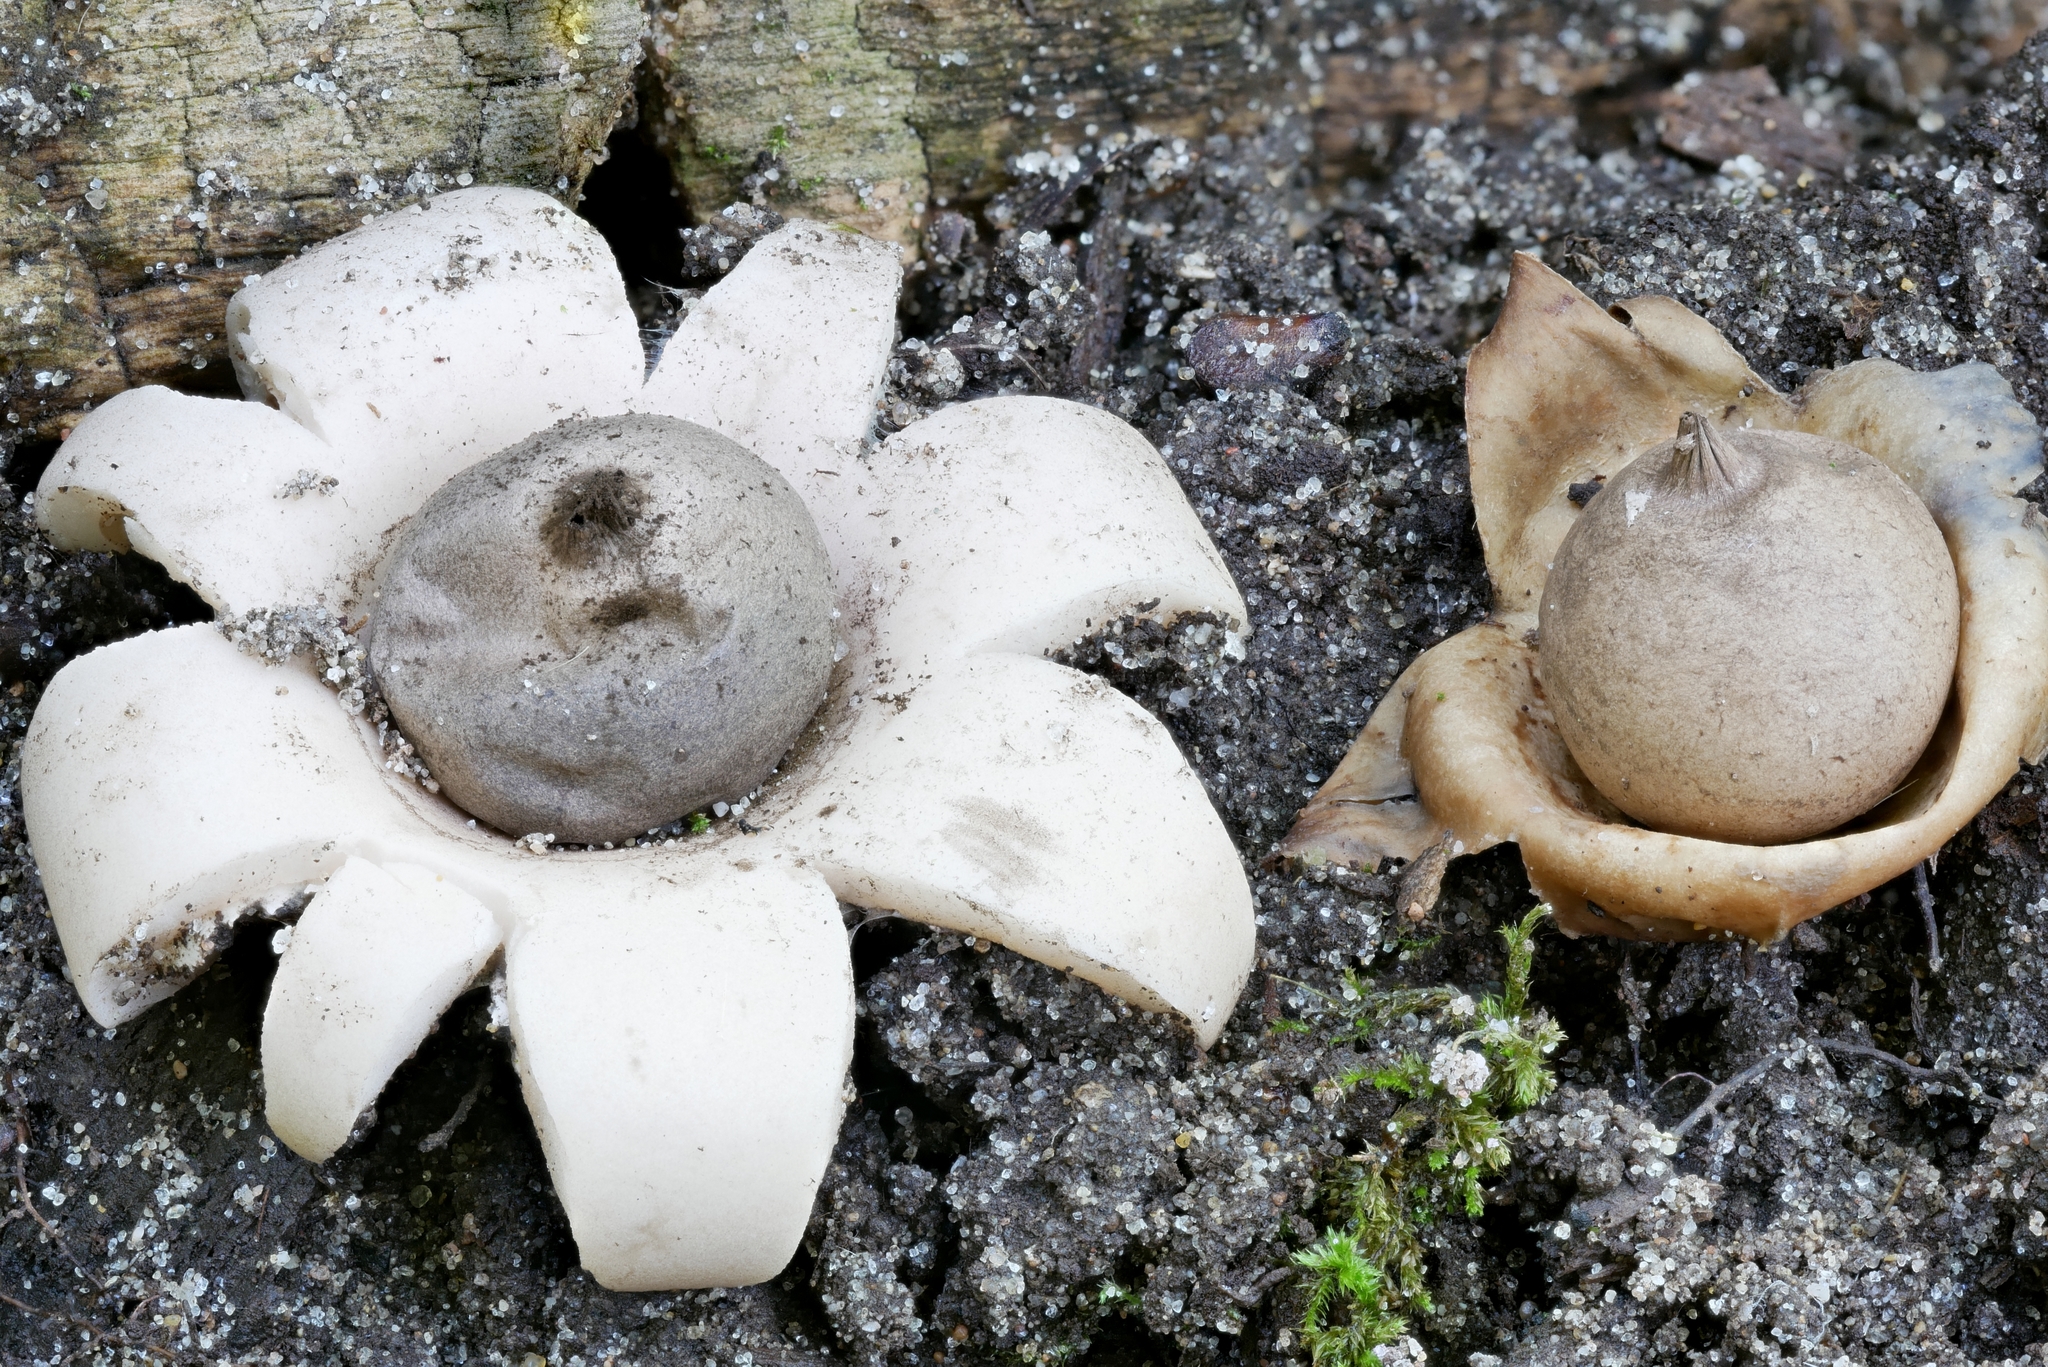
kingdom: Fungi
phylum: Basidiomycota
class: Agaricomycetes
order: Geastrales
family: Geastraceae
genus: Geastrum
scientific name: Geastrum morganii
